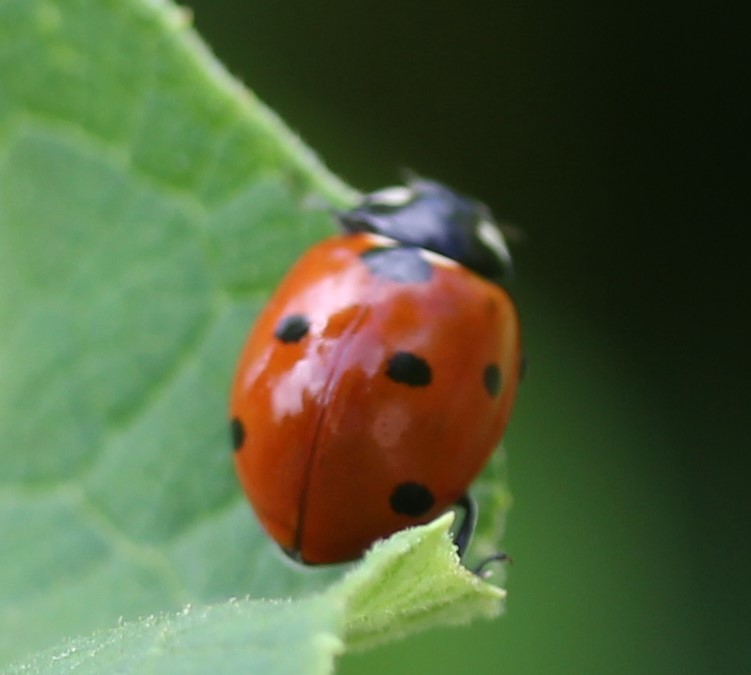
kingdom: Animalia
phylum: Arthropoda
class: Insecta
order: Coleoptera
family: Coccinellidae
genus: Coccinella
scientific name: Coccinella septempunctata
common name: Sevenspotted lady beetle
